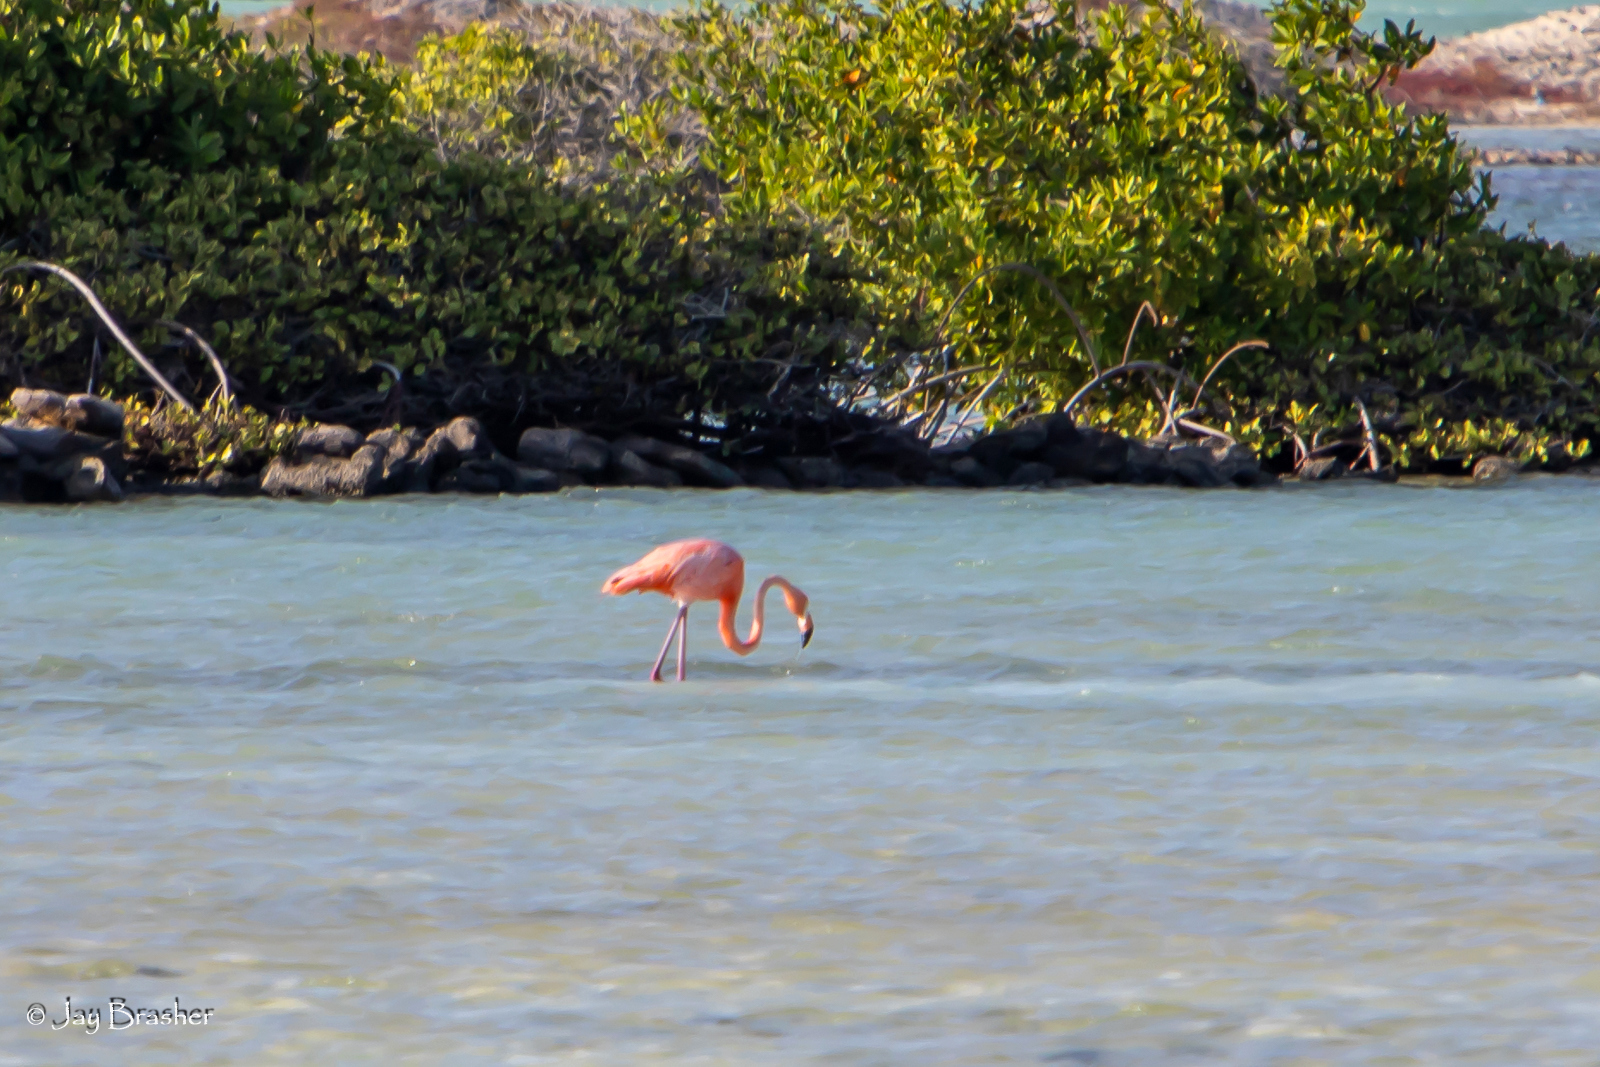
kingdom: Animalia
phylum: Chordata
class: Aves
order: Phoenicopteriformes
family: Phoenicopteridae
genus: Phoenicopterus
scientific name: Phoenicopterus ruber
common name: American flamingo
